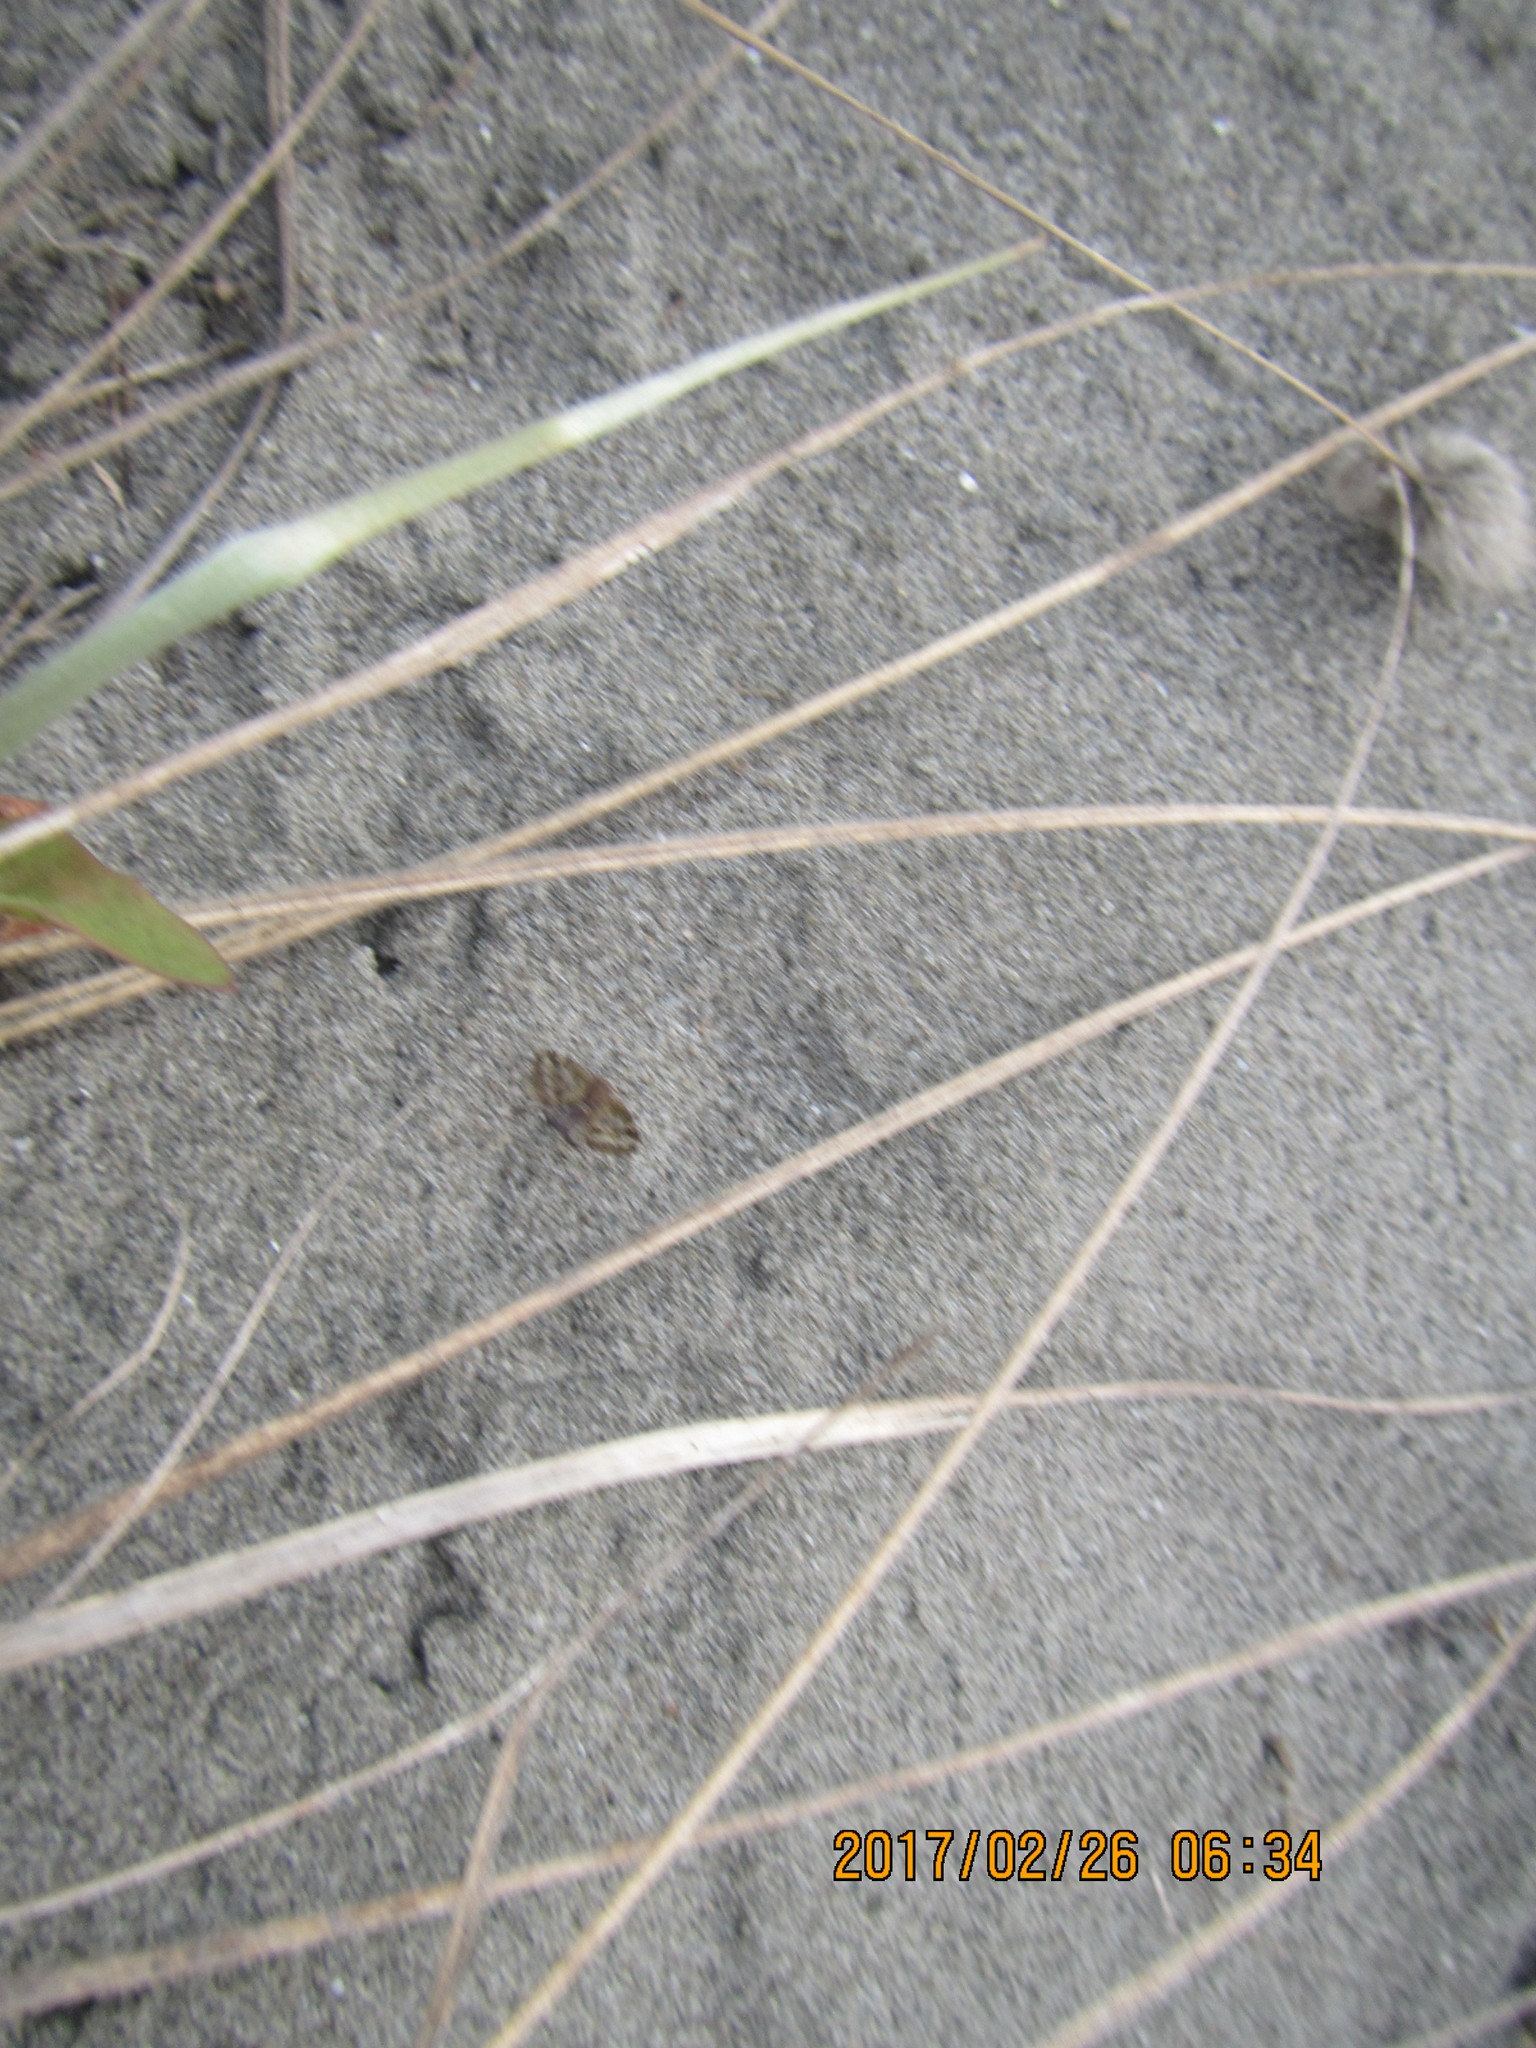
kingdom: Animalia
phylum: Arthropoda
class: Insecta
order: Hemiptera
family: Ricaniidae
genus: Scolypopa
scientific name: Scolypopa australis
